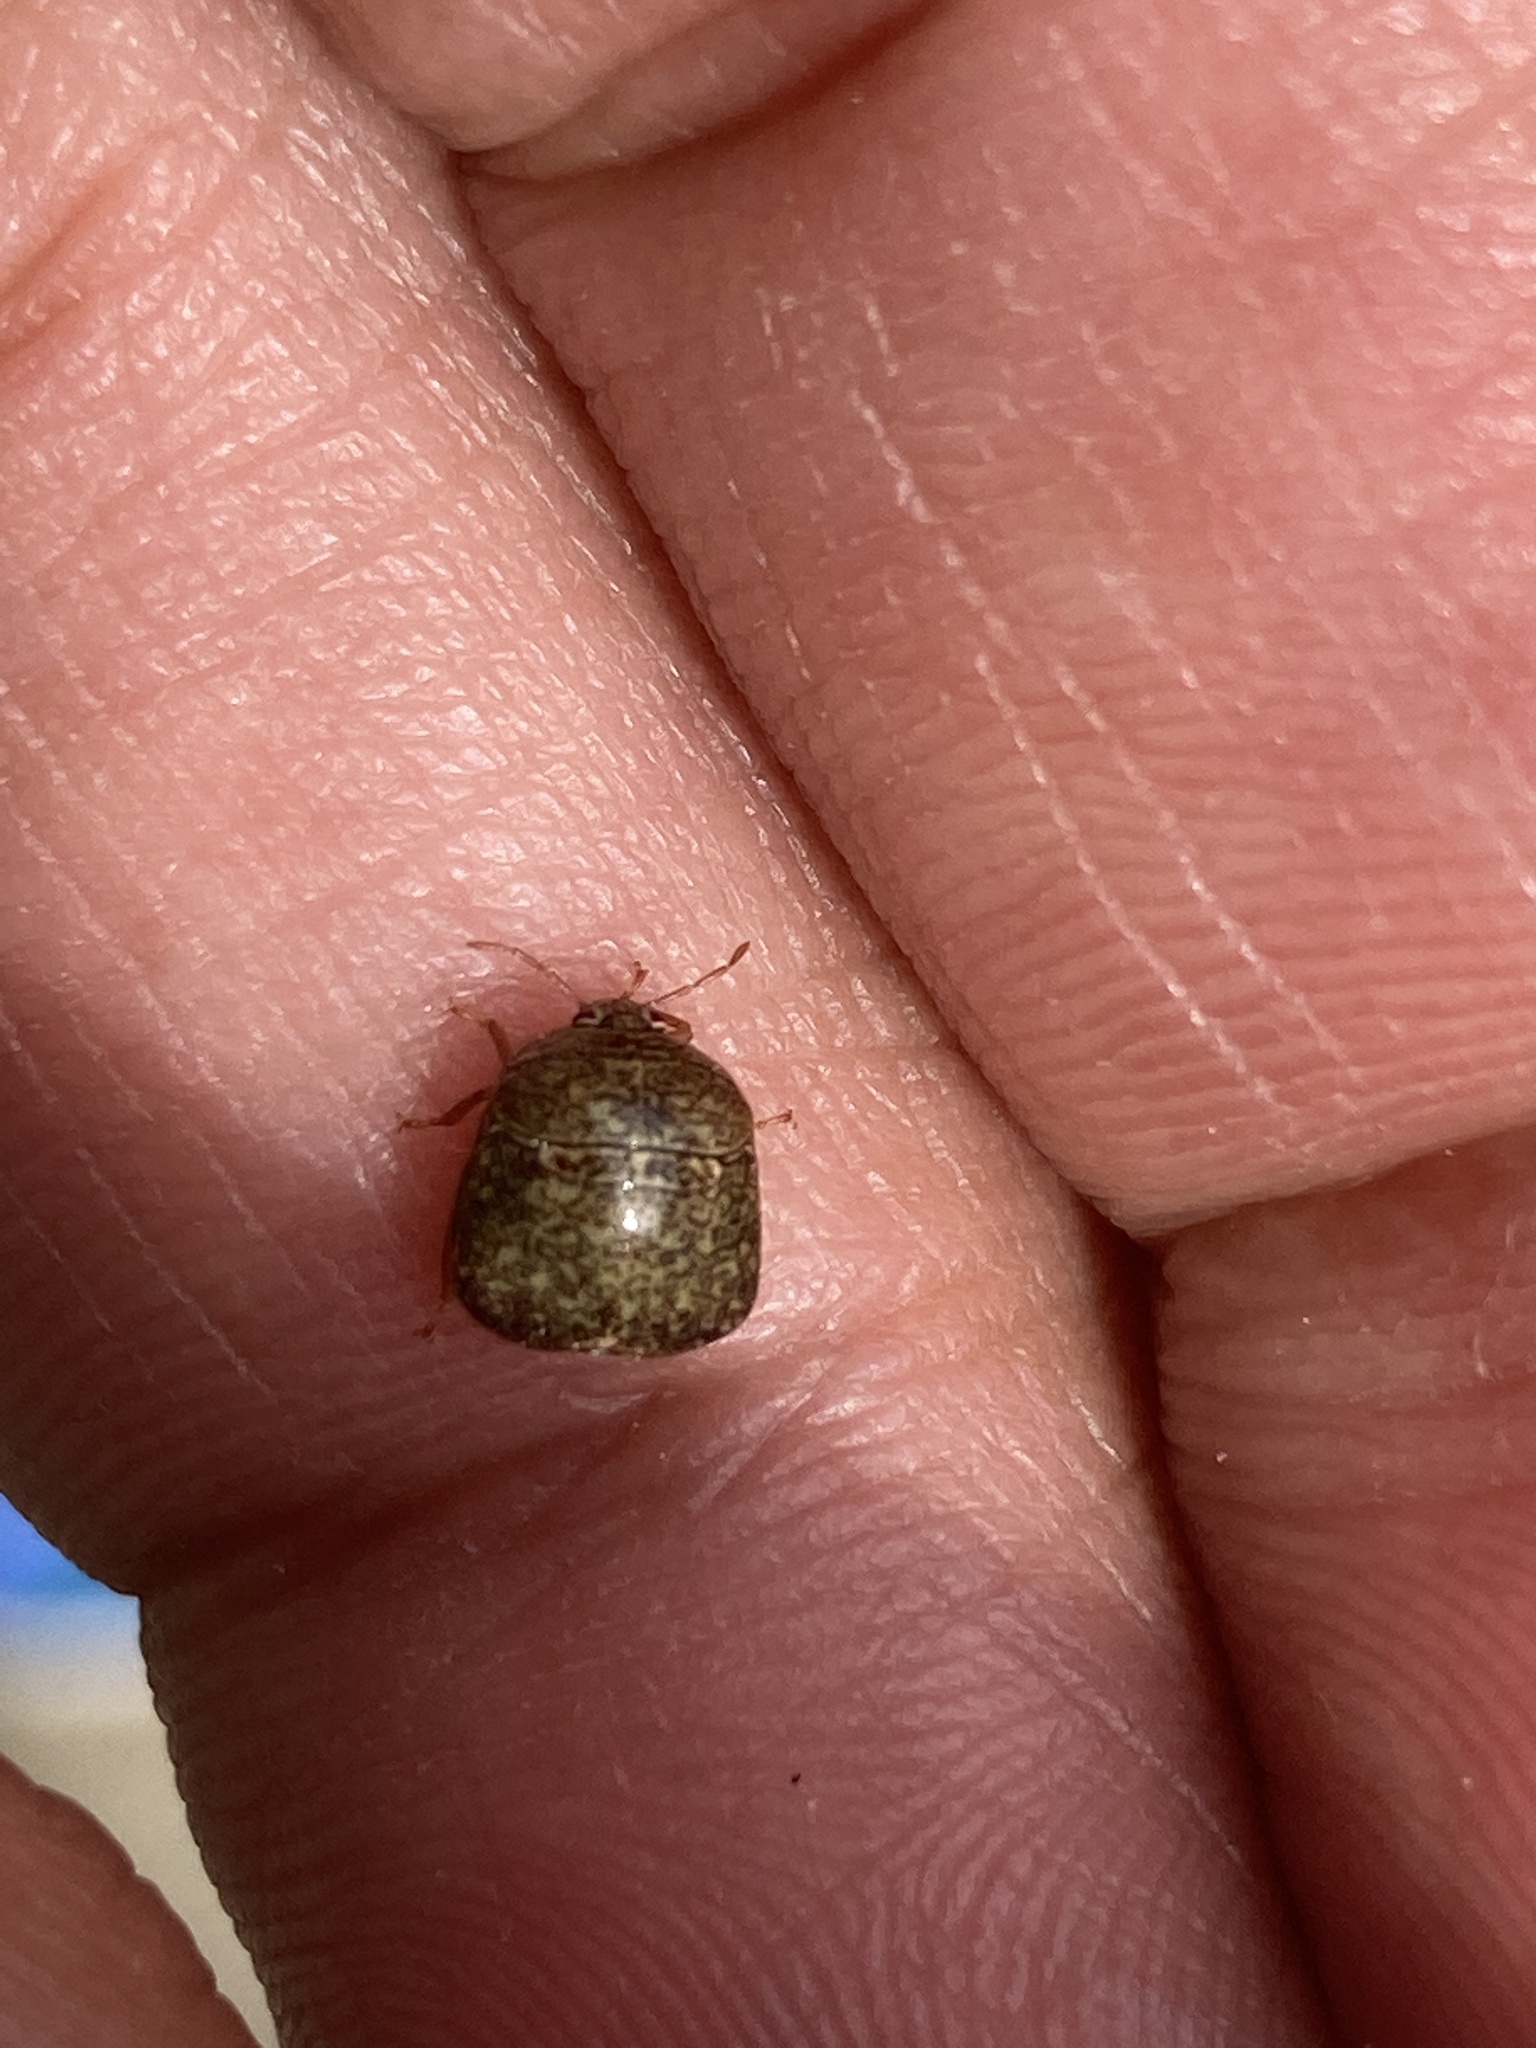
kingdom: Animalia
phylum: Arthropoda
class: Insecta
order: Hemiptera
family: Plataspidae
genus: Megacopta
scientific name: Megacopta cribraria
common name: Bean plataspid
